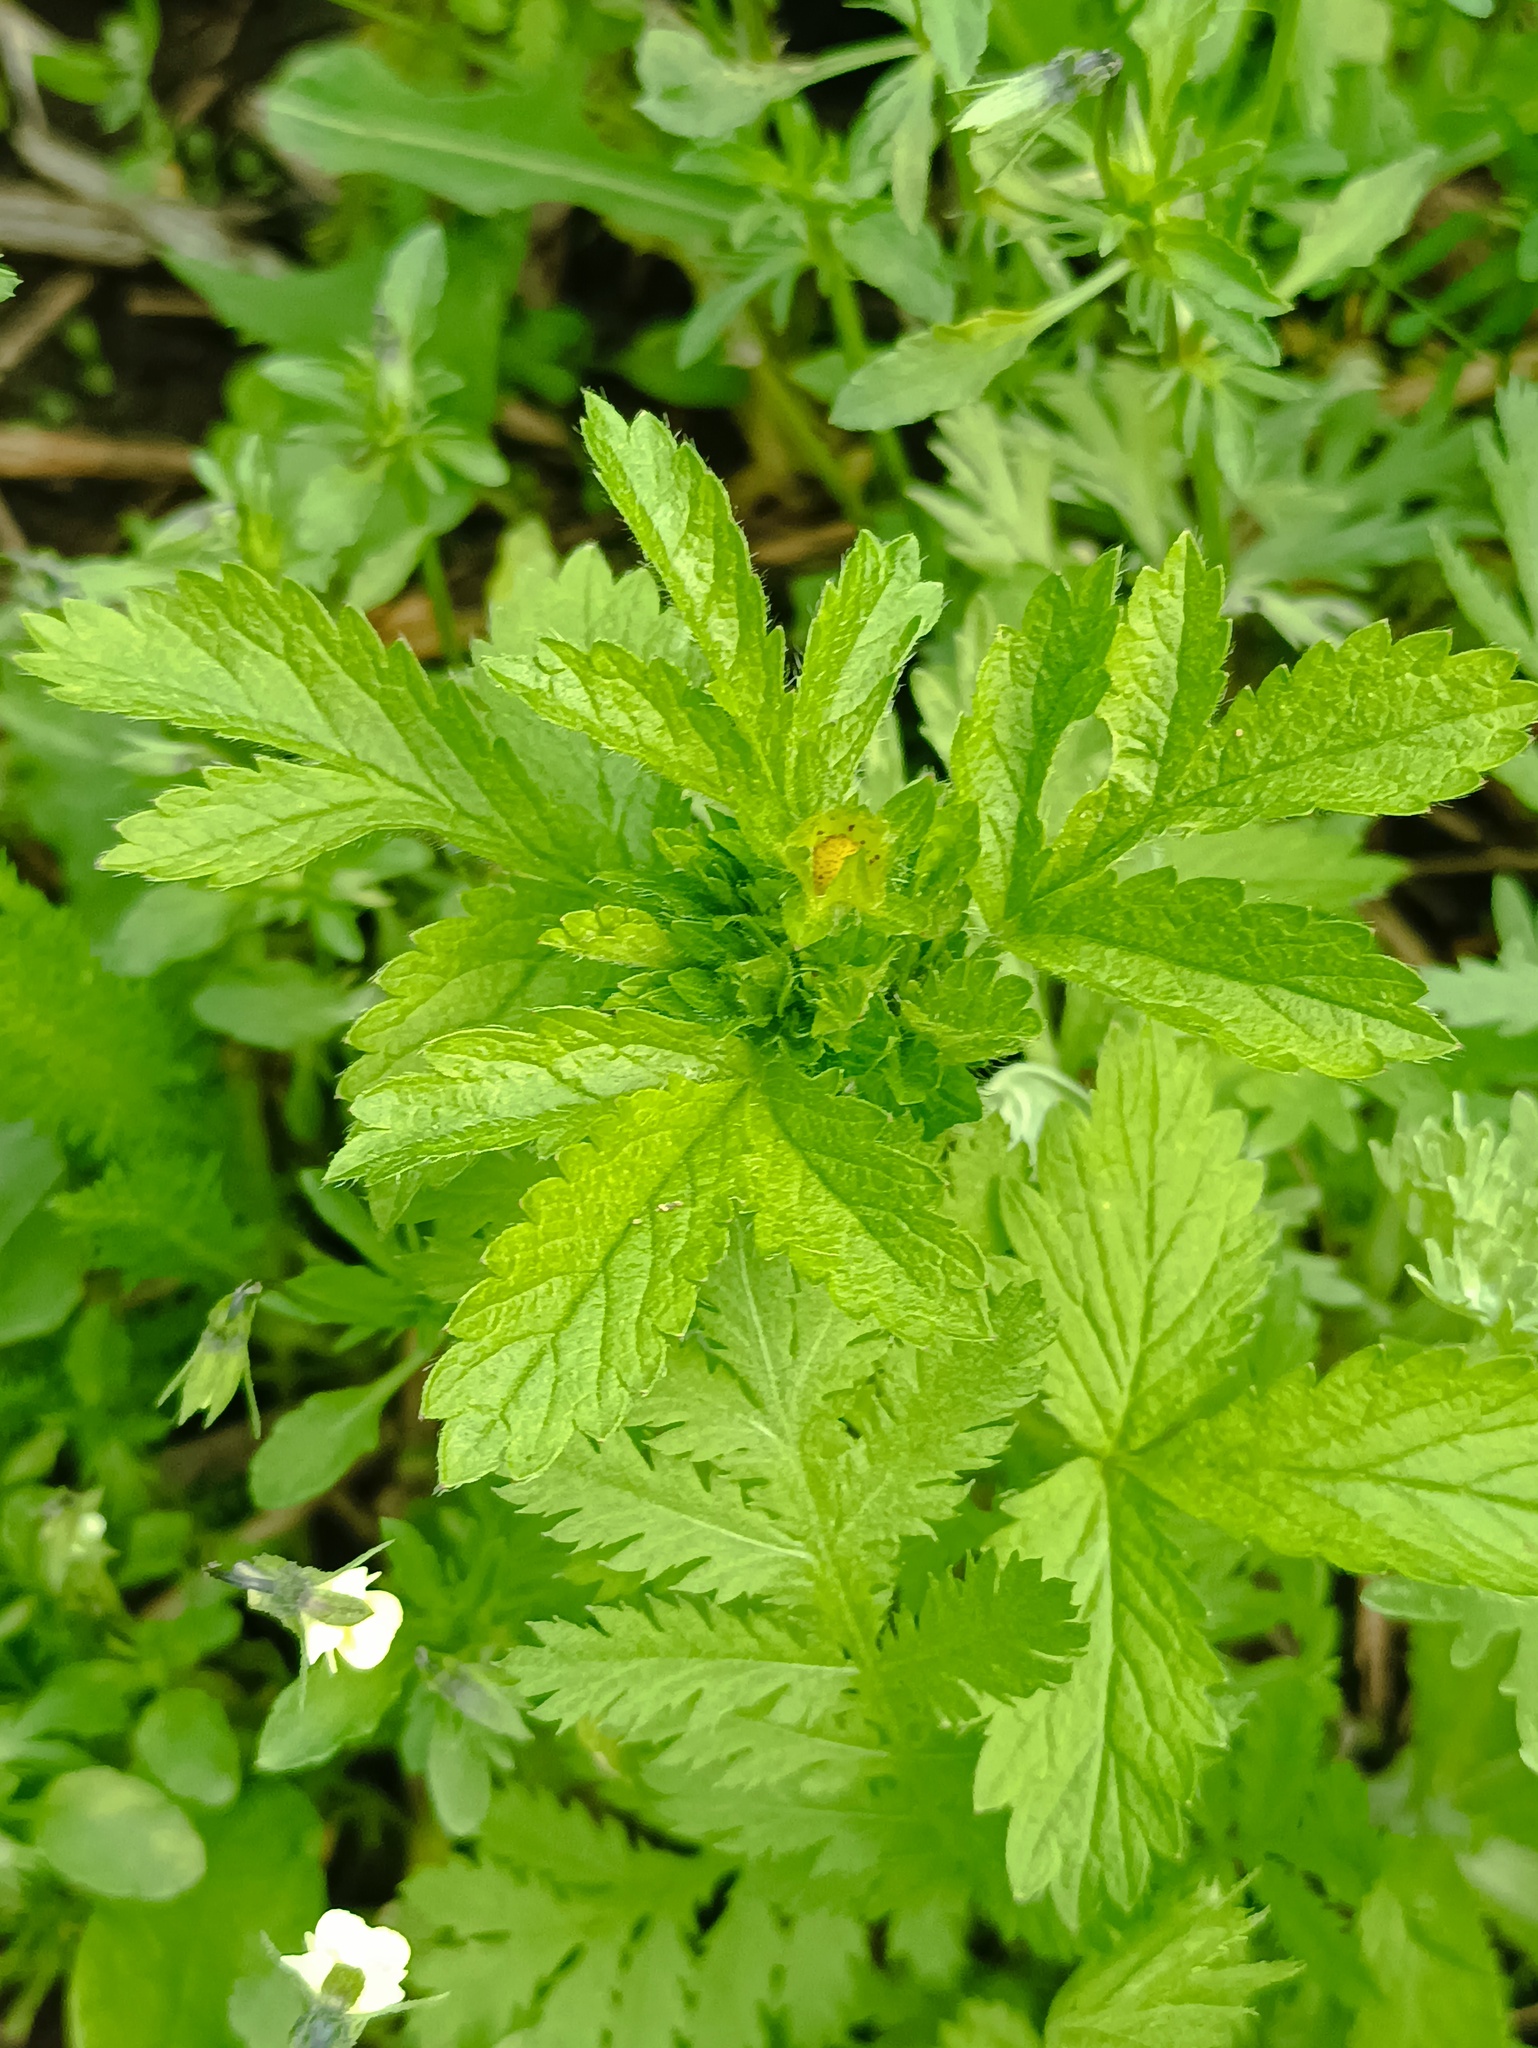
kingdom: Plantae
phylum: Tracheophyta
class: Magnoliopsida
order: Rosales
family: Rosaceae
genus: Potentilla
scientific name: Potentilla norvegica
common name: Ternate-leaved cinquefoil
